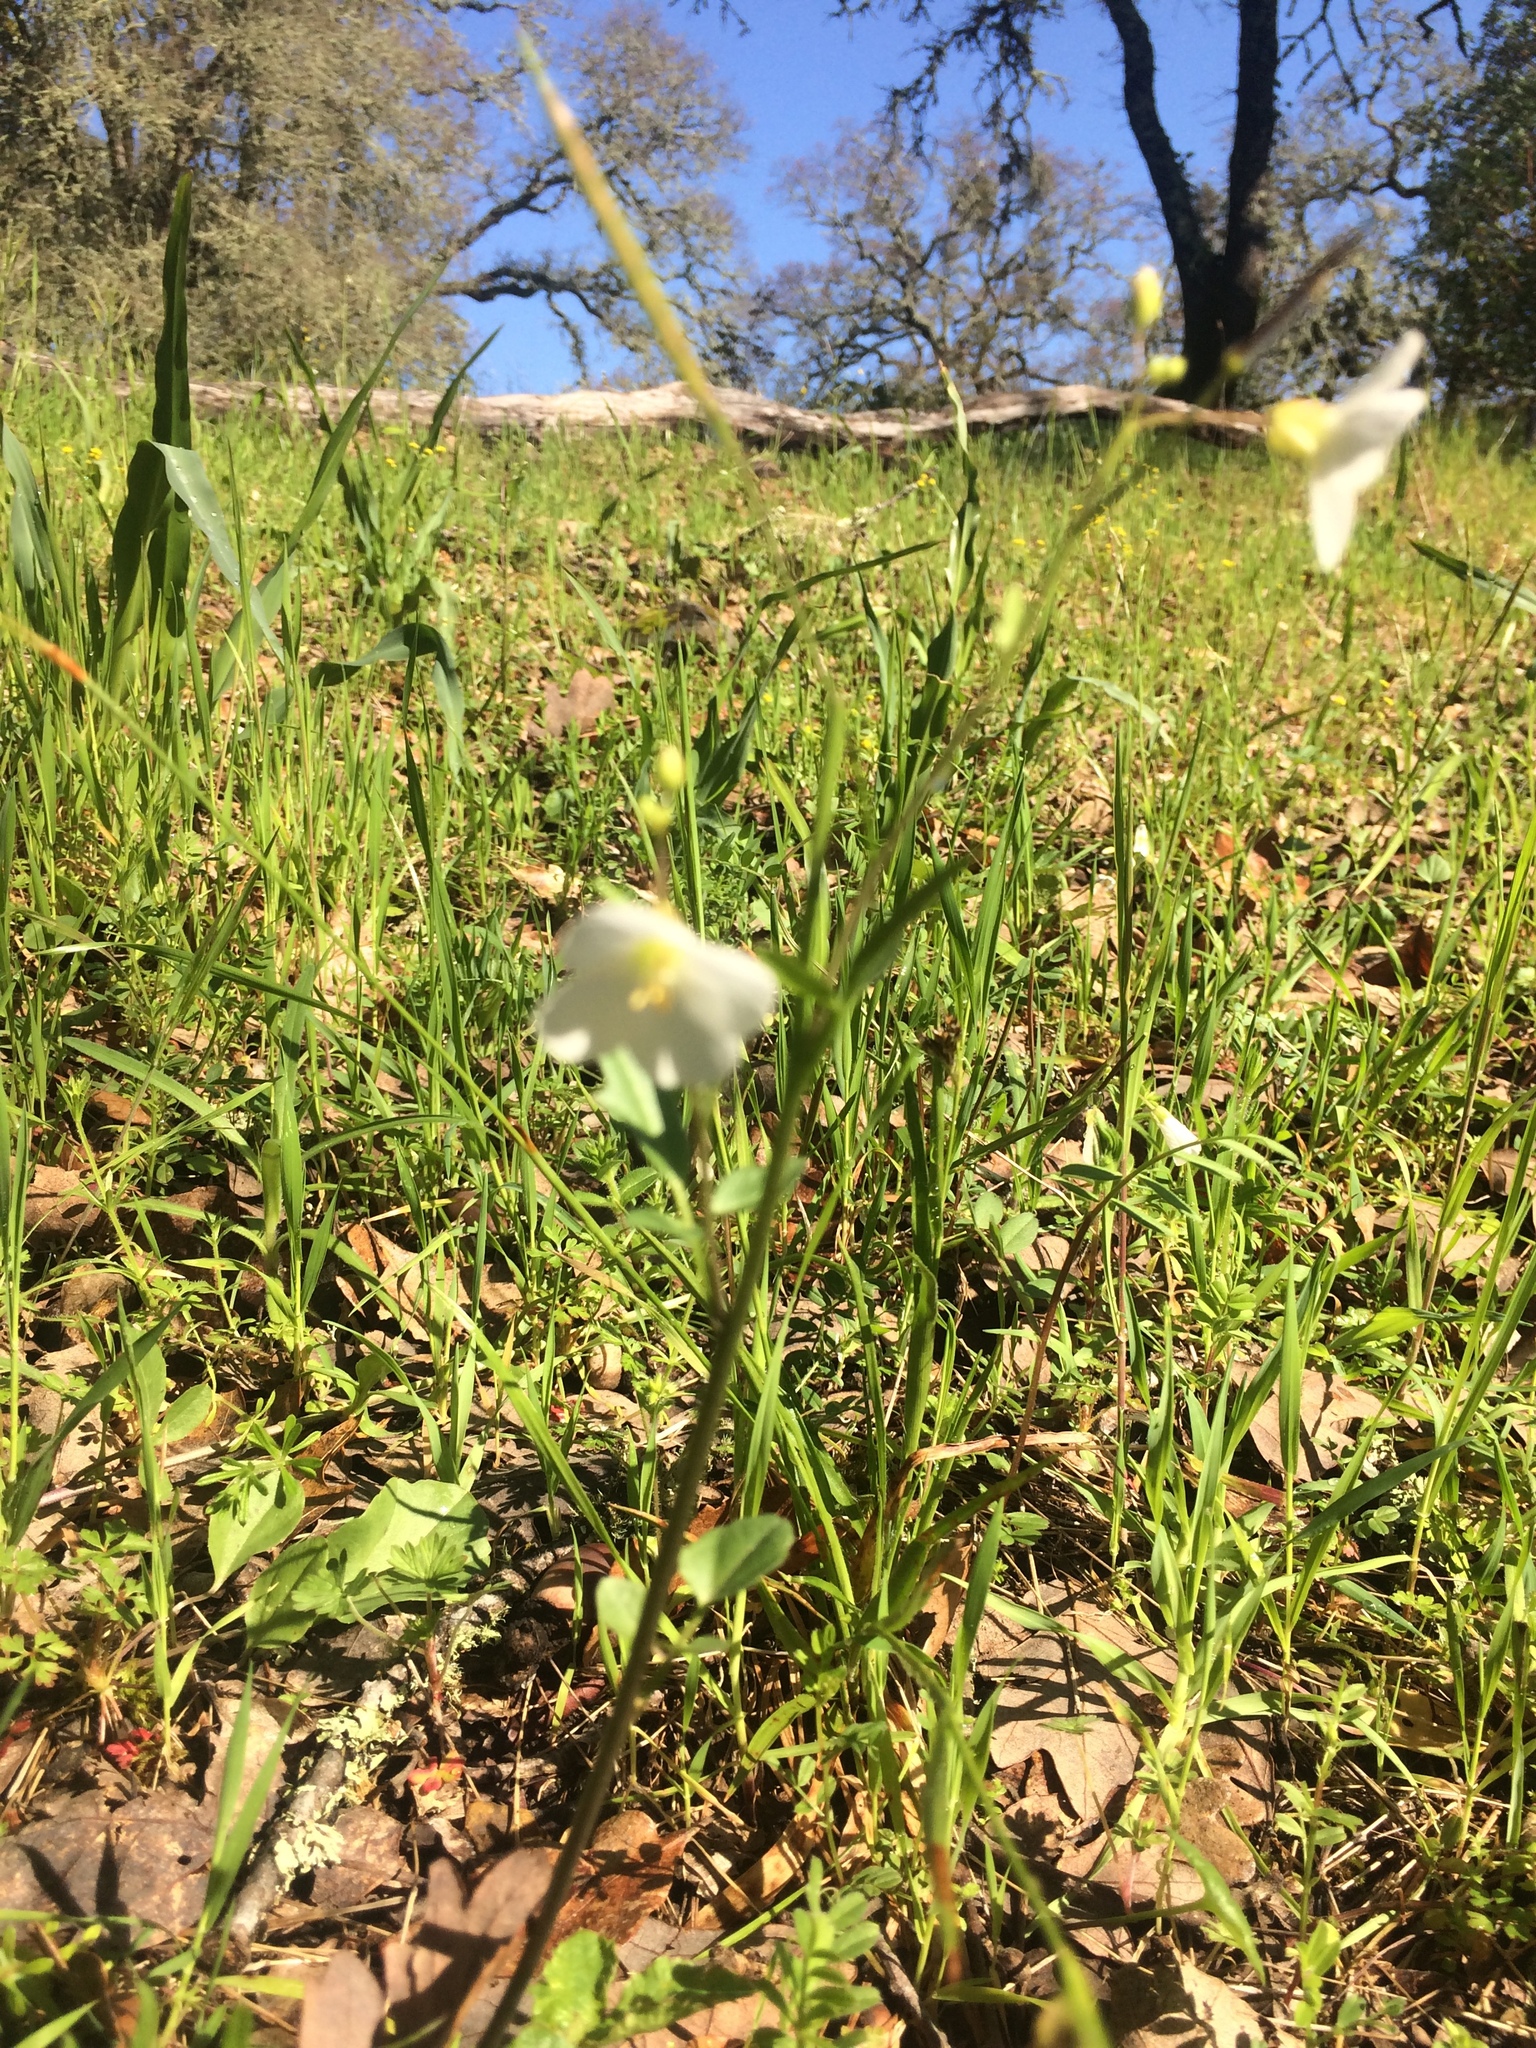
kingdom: Plantae
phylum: Tracheophyta
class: Magnoliopsida
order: Brassicales
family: Brassicaceae
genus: Cardamine
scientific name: Cardamine californica
